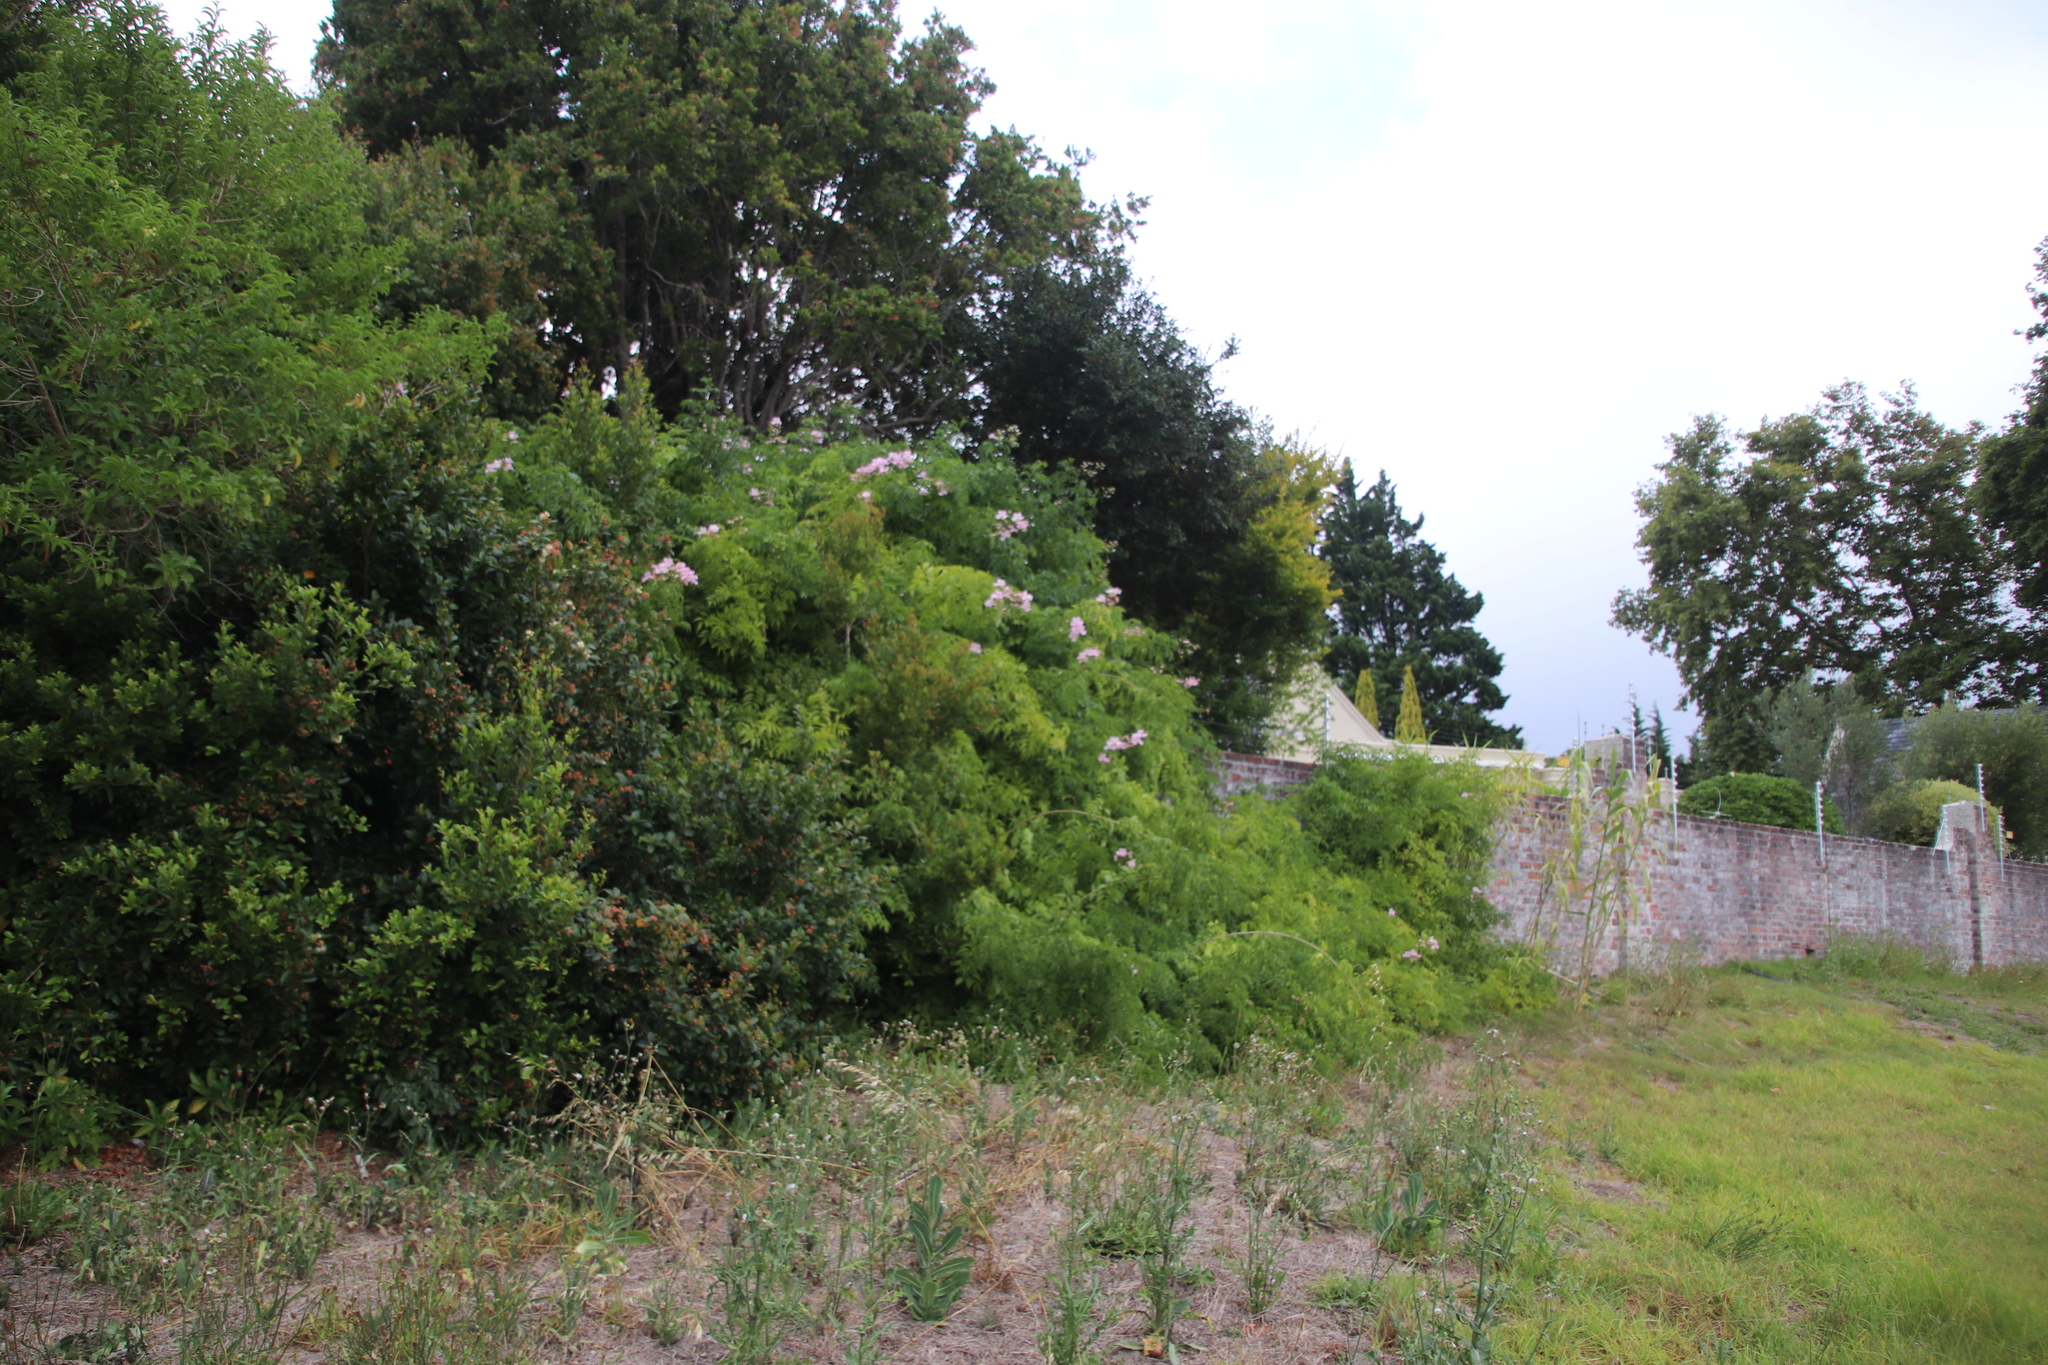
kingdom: Plantae
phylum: Tracheophyta
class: Magnoliopsida
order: Lamiales
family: Bignoniaceae
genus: Podranea
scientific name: Podranea ricasoliana
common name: Zimbabwe creeper
